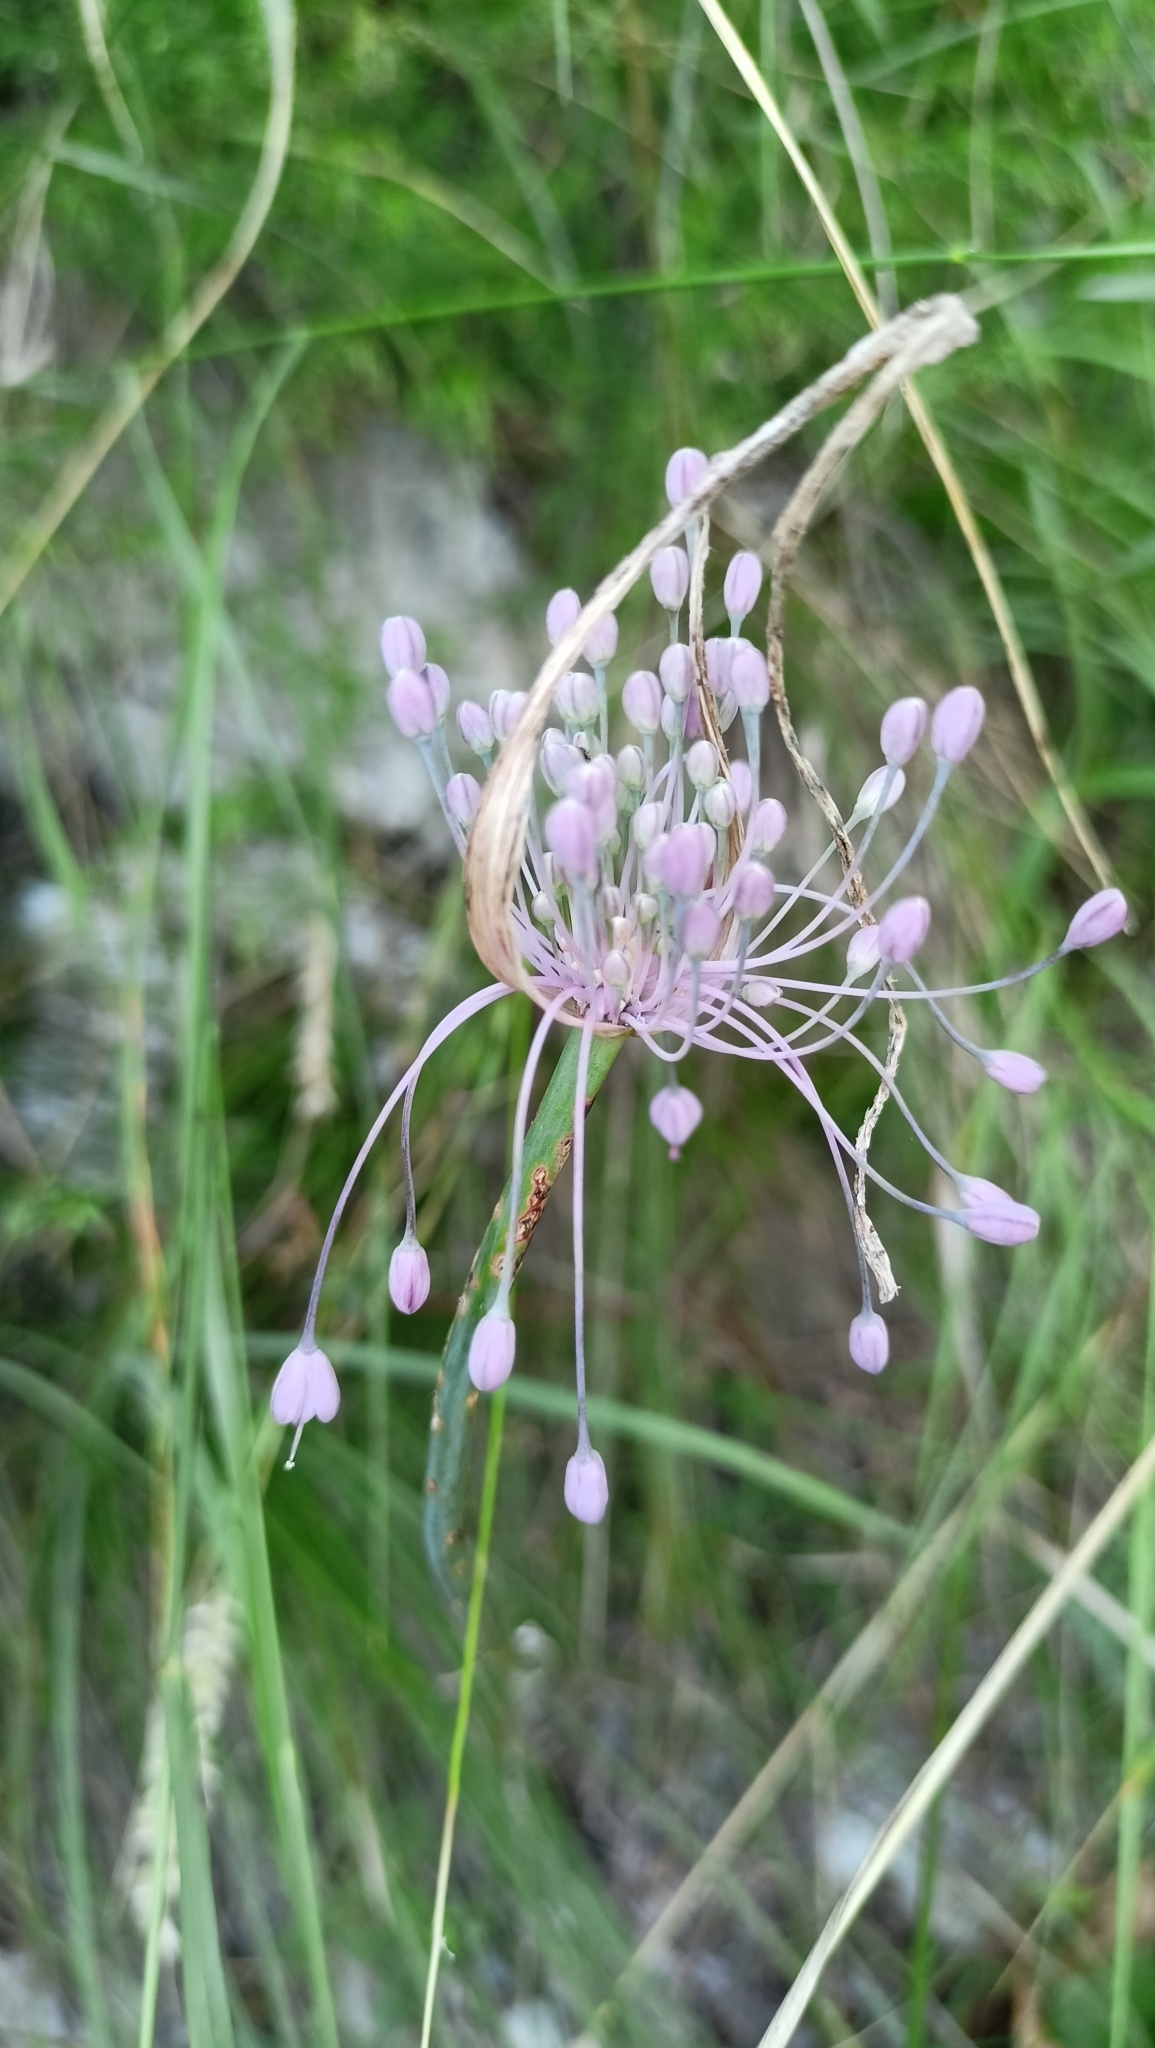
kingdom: Plantae
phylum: Tracheophyta
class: Liliopsida
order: Asparagales
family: Amaryllidaceae
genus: Allium
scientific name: Allium coloratum
